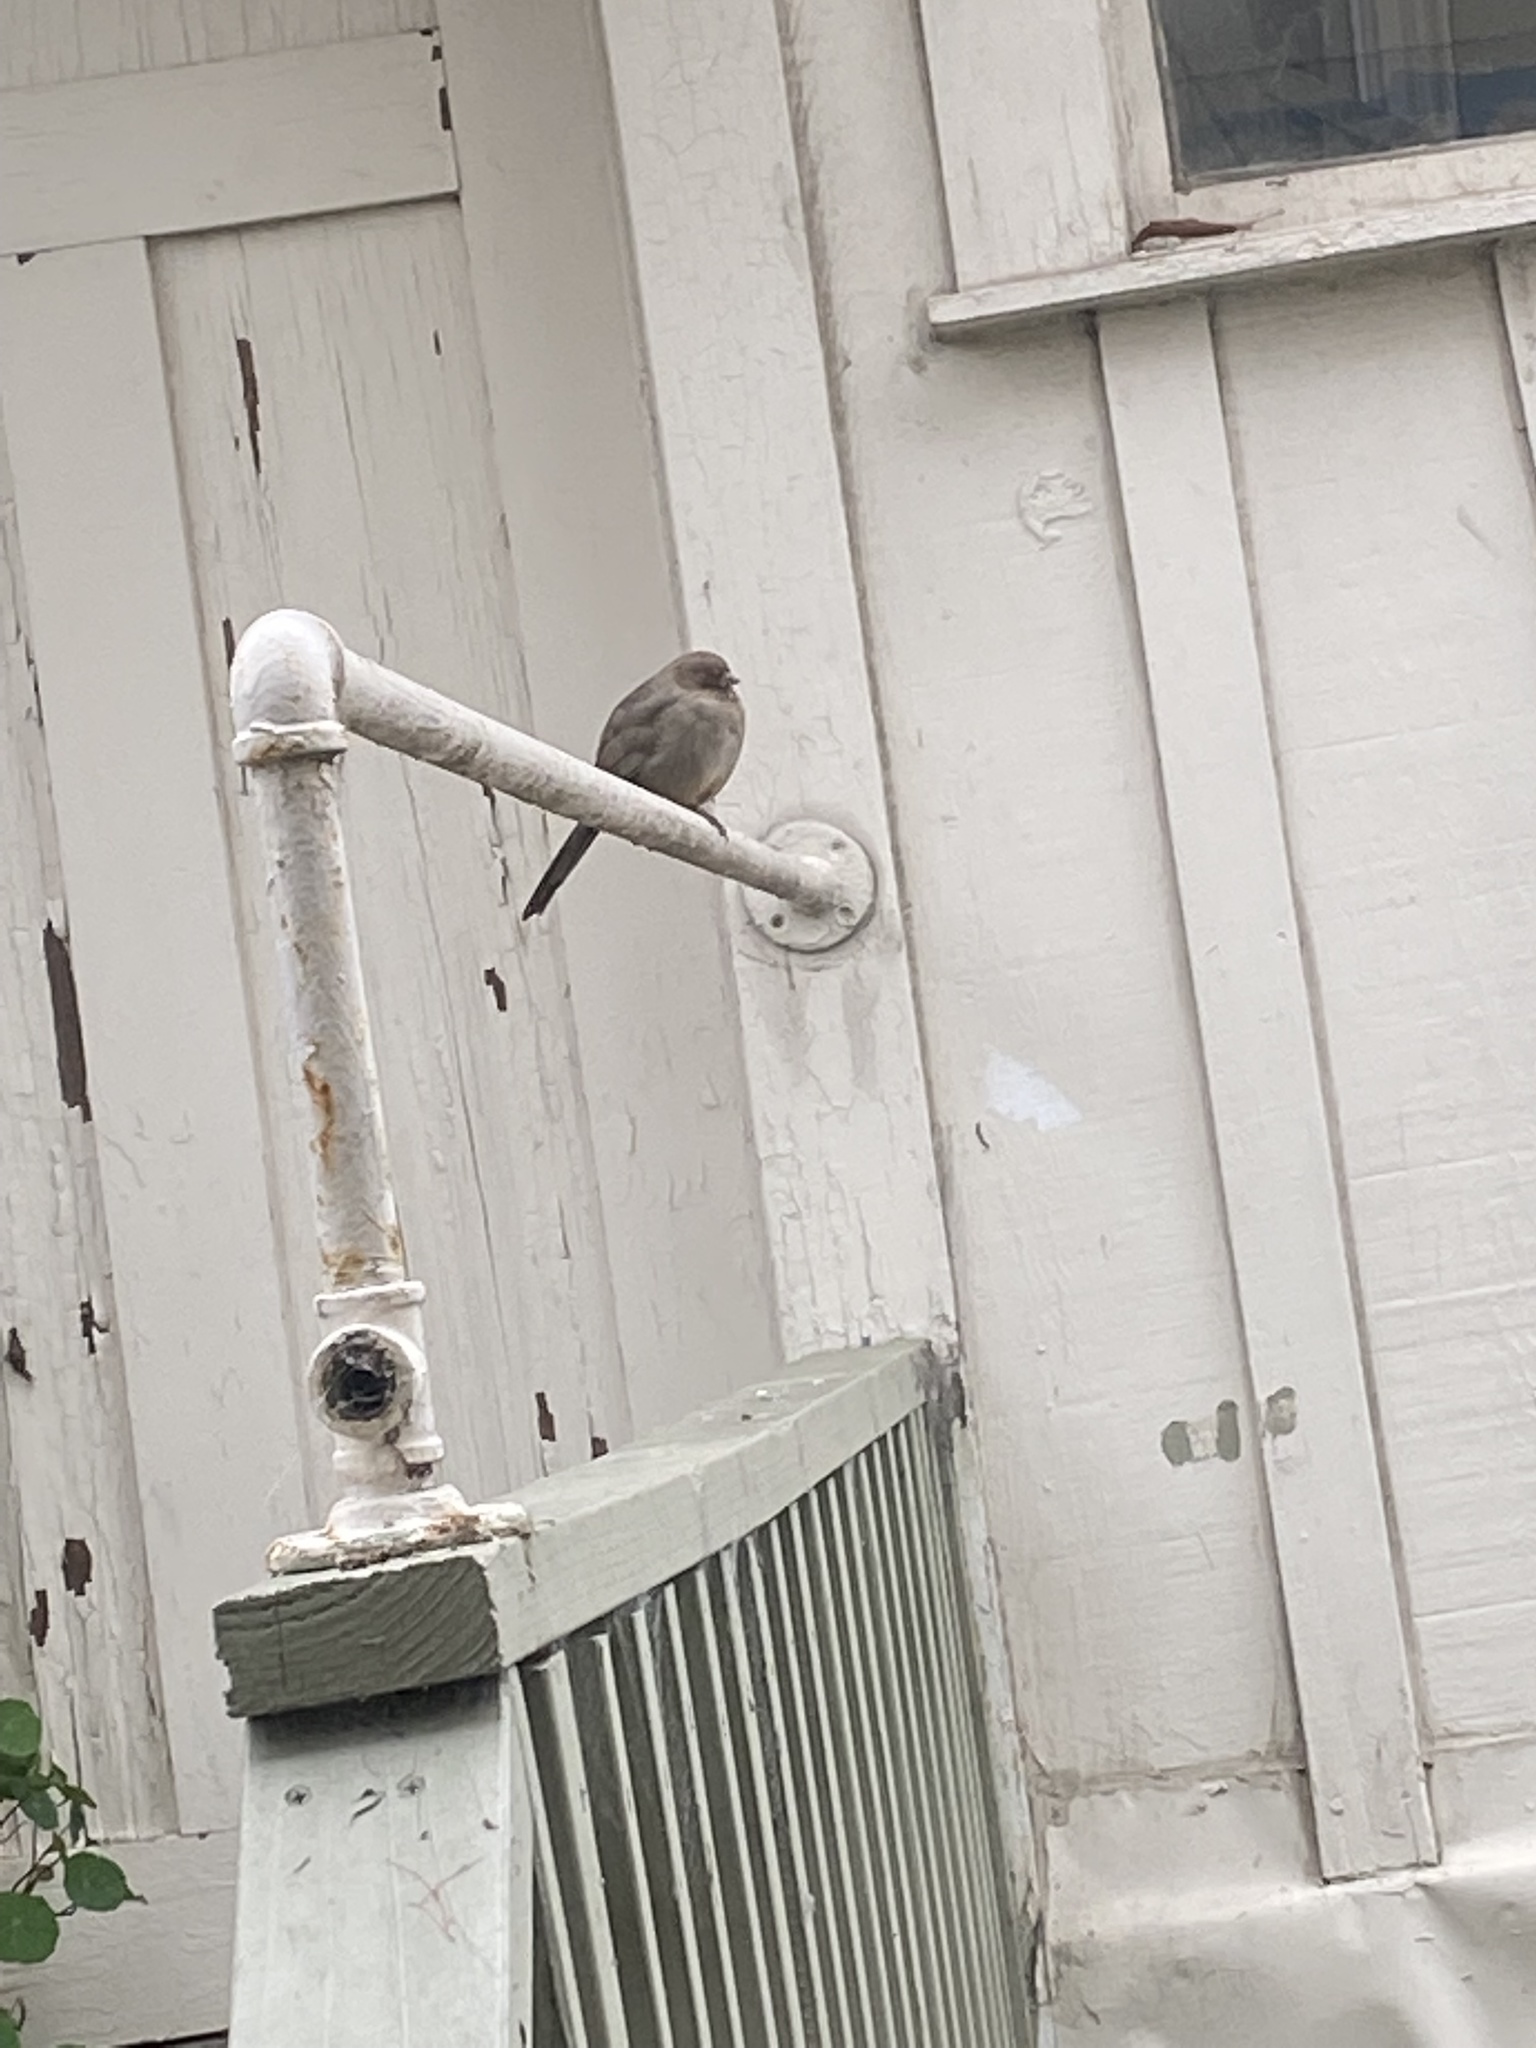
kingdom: Animalia
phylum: Chordata
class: Aves
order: Passeriformes
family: Passerellidae
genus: Melozone
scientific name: Melozone crissalis
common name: California towhee
